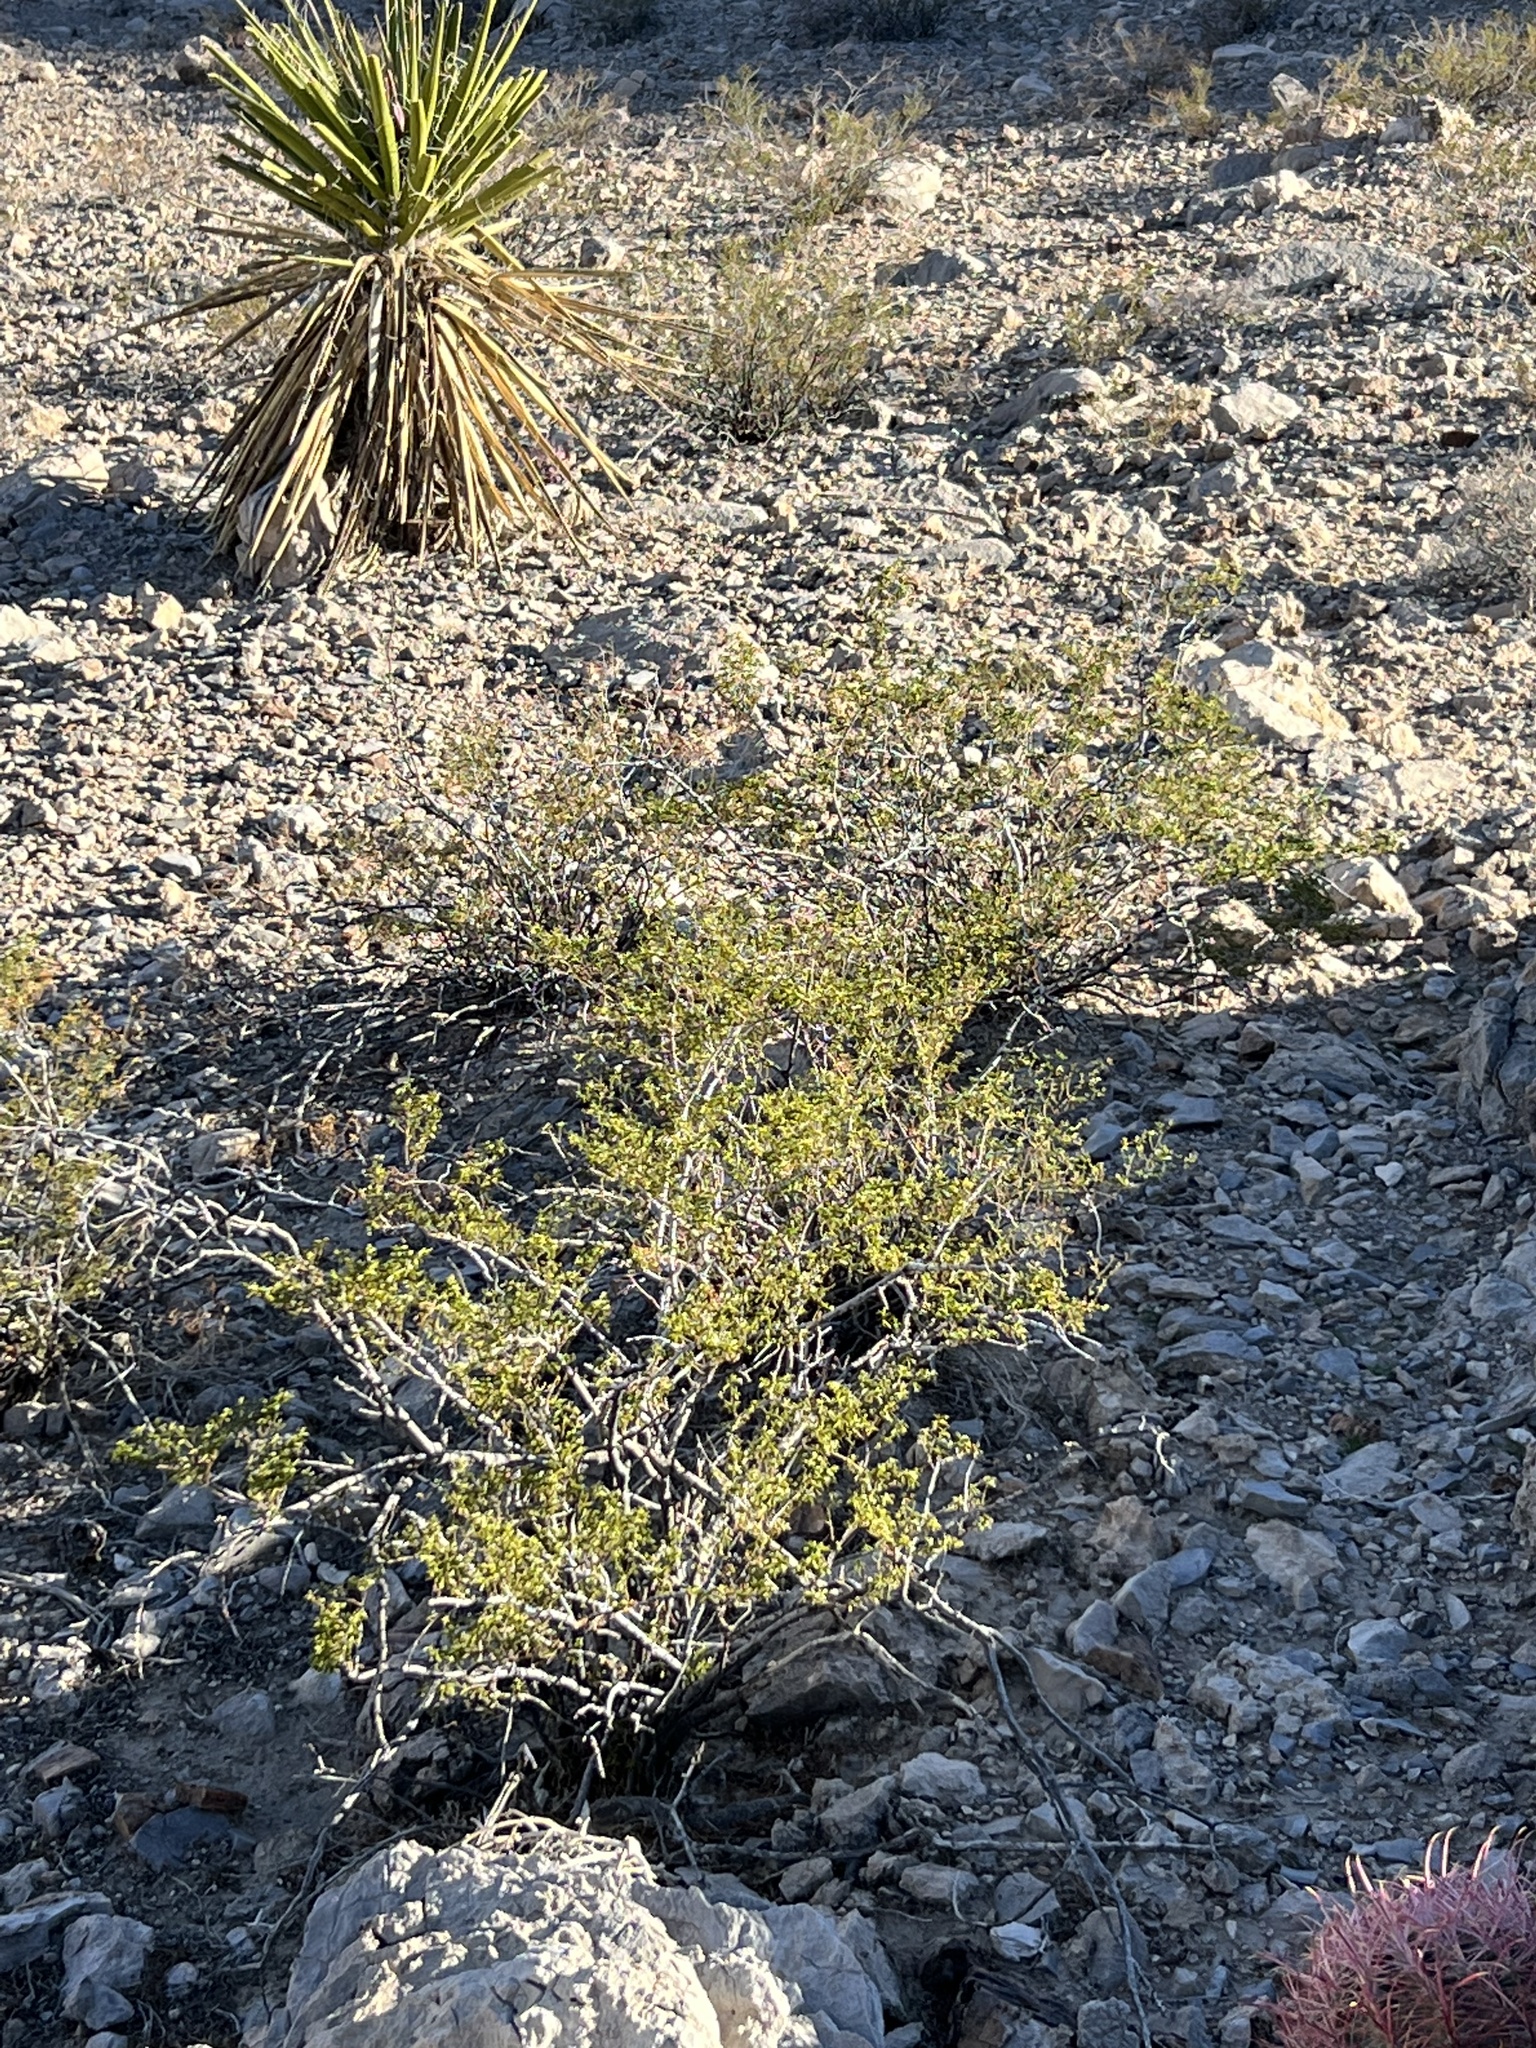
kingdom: Plantae
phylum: Tracheophyta
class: Magnoliopsida
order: Zygophyllales
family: Zygophyllaceae
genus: Larrea
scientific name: Larrea tridentata
